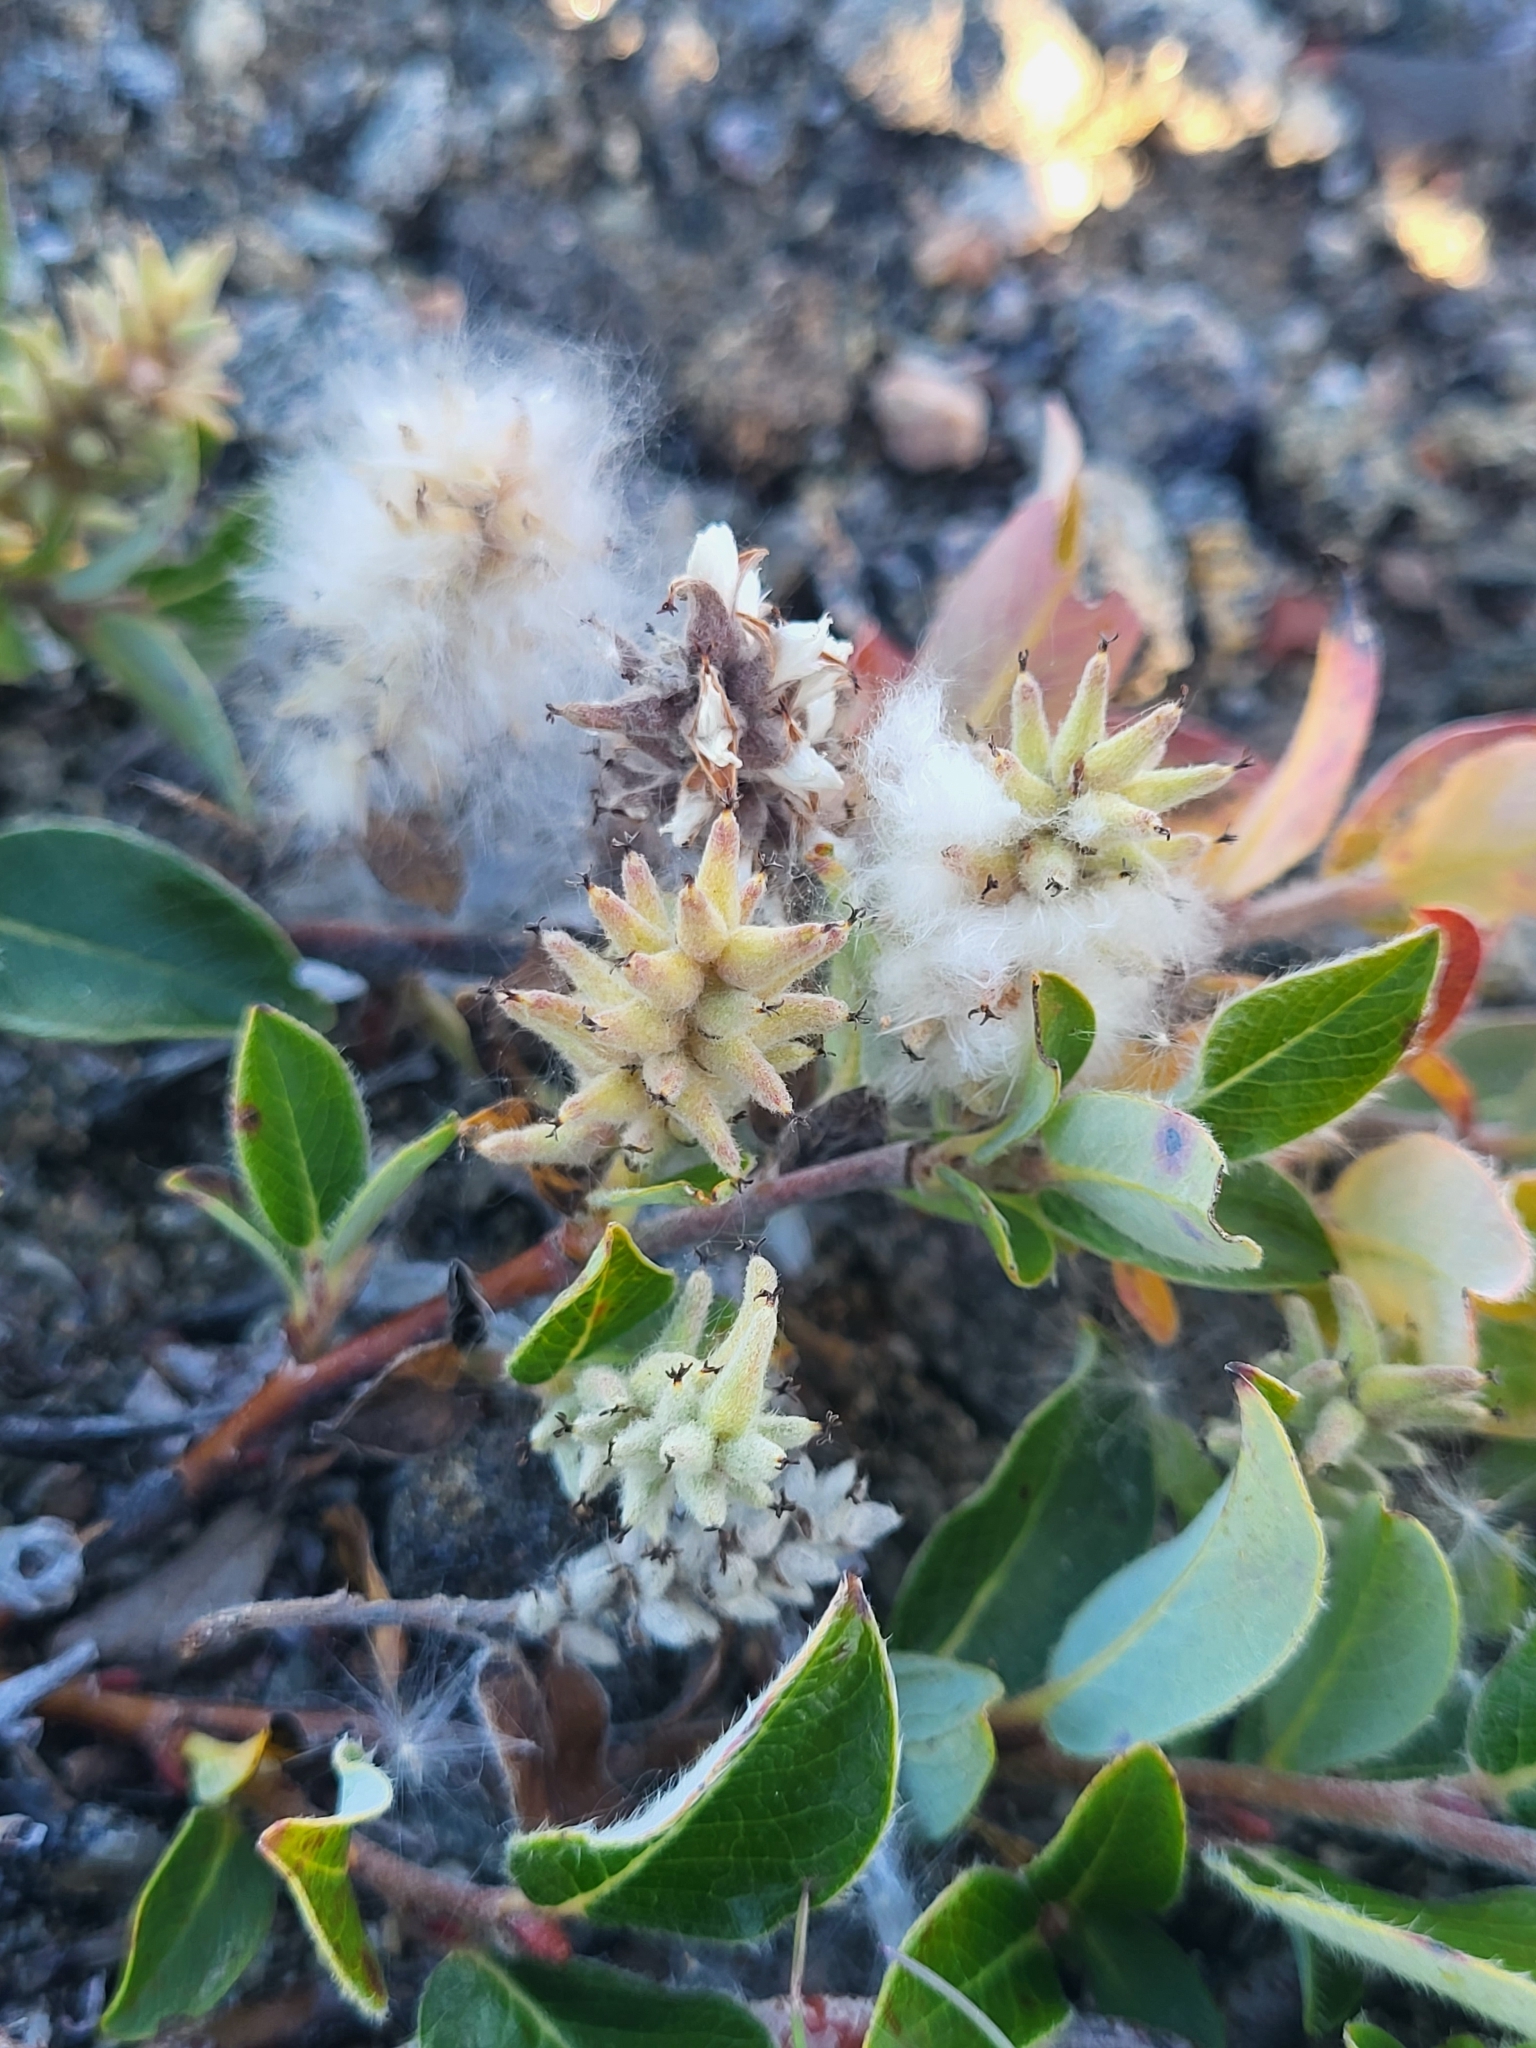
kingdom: Plantae
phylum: Tracheophyta
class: Magnoliopsida
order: Malpighiales
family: Salicaceae
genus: Salix
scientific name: Salix glauca
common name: Glaucous willow
